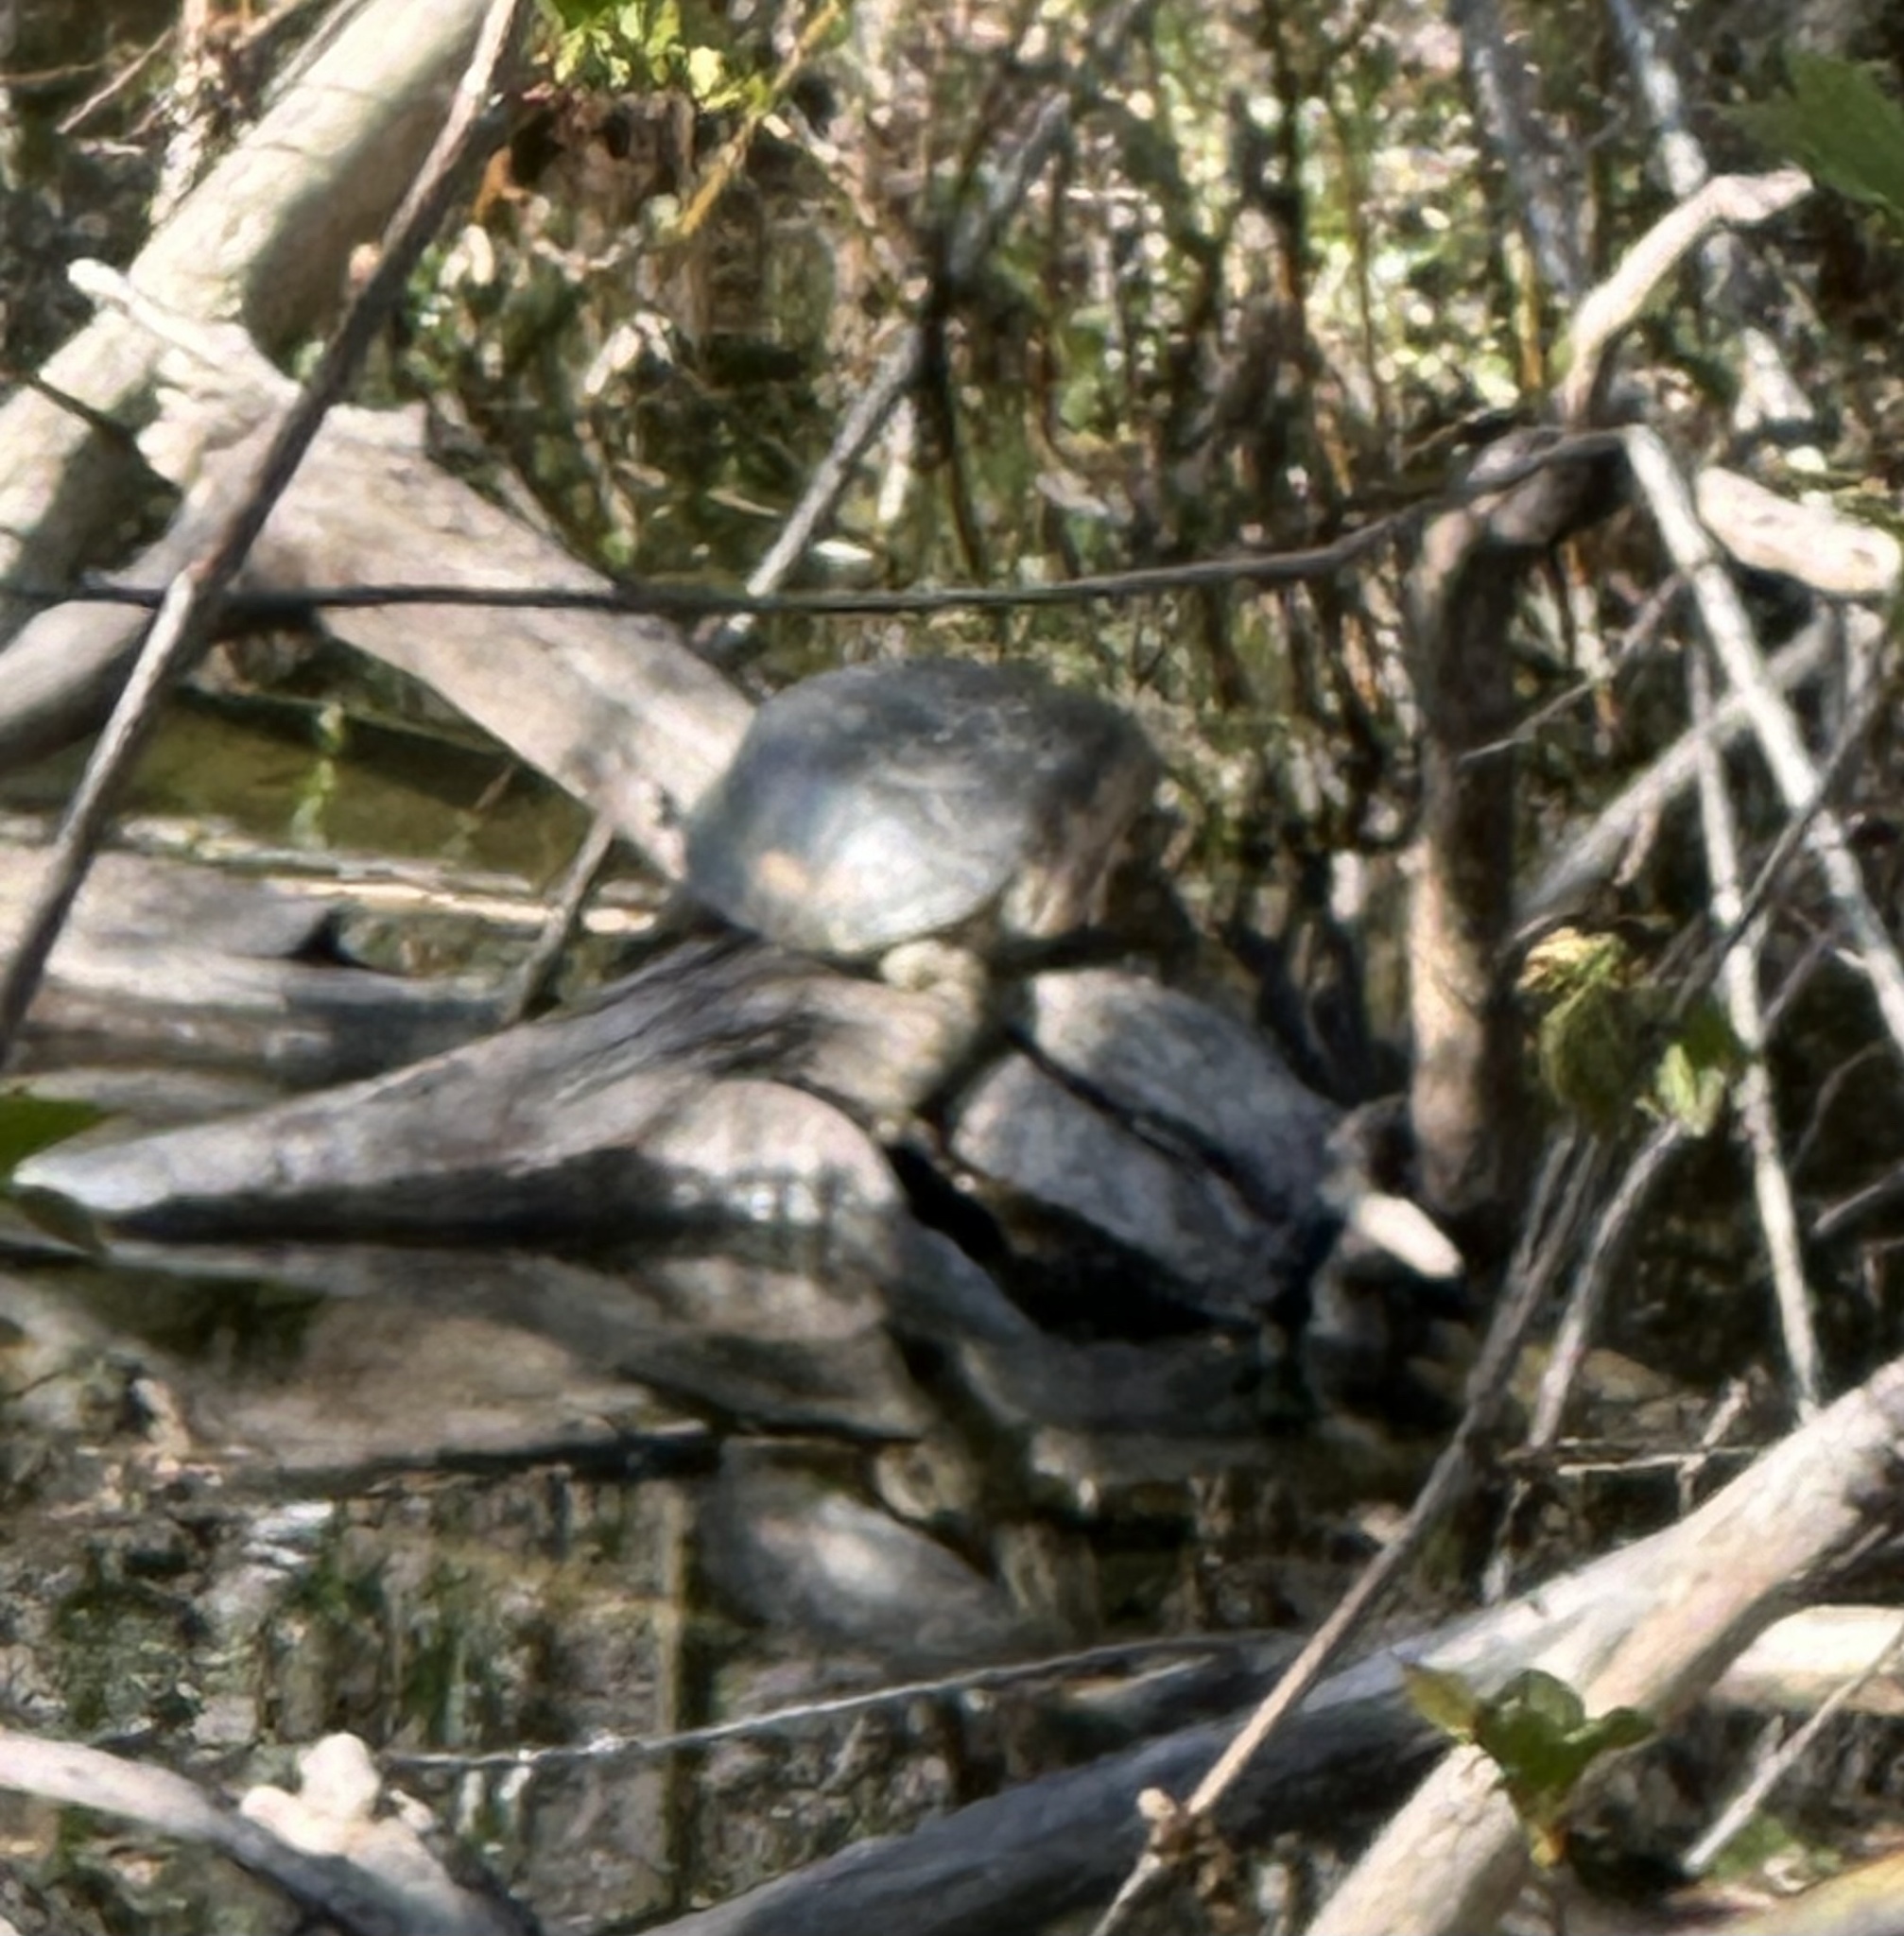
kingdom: Animalia
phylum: Chordata
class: Testudines
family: Emydidae
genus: Actinemys
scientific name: Actinemys marmorata
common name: Western pond turtle
